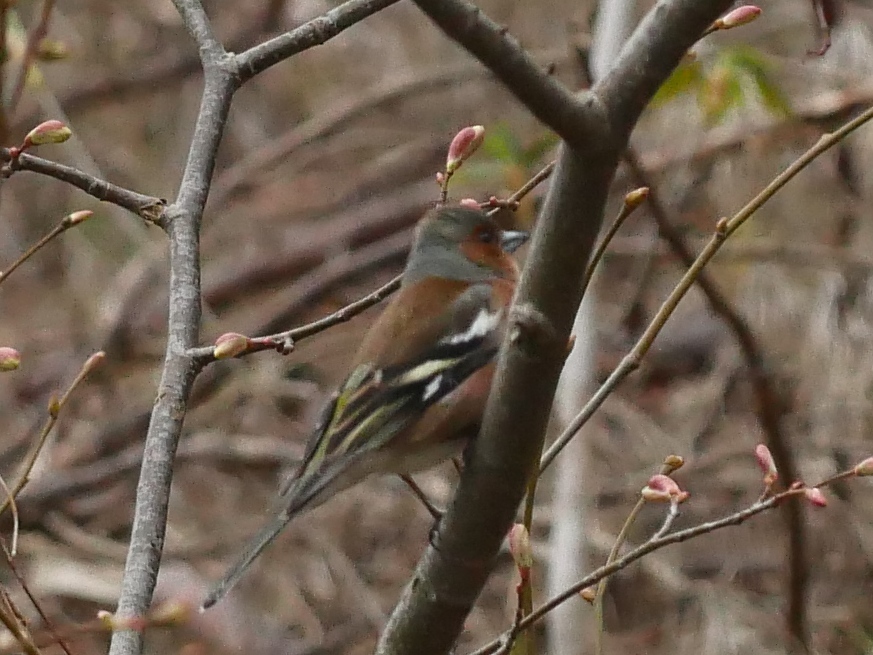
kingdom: Animalia
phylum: Chordata
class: Aves
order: Passeriformes
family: Fringillidae
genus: Fringilla
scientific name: Fringilla coelebs
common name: Common chaffinch
